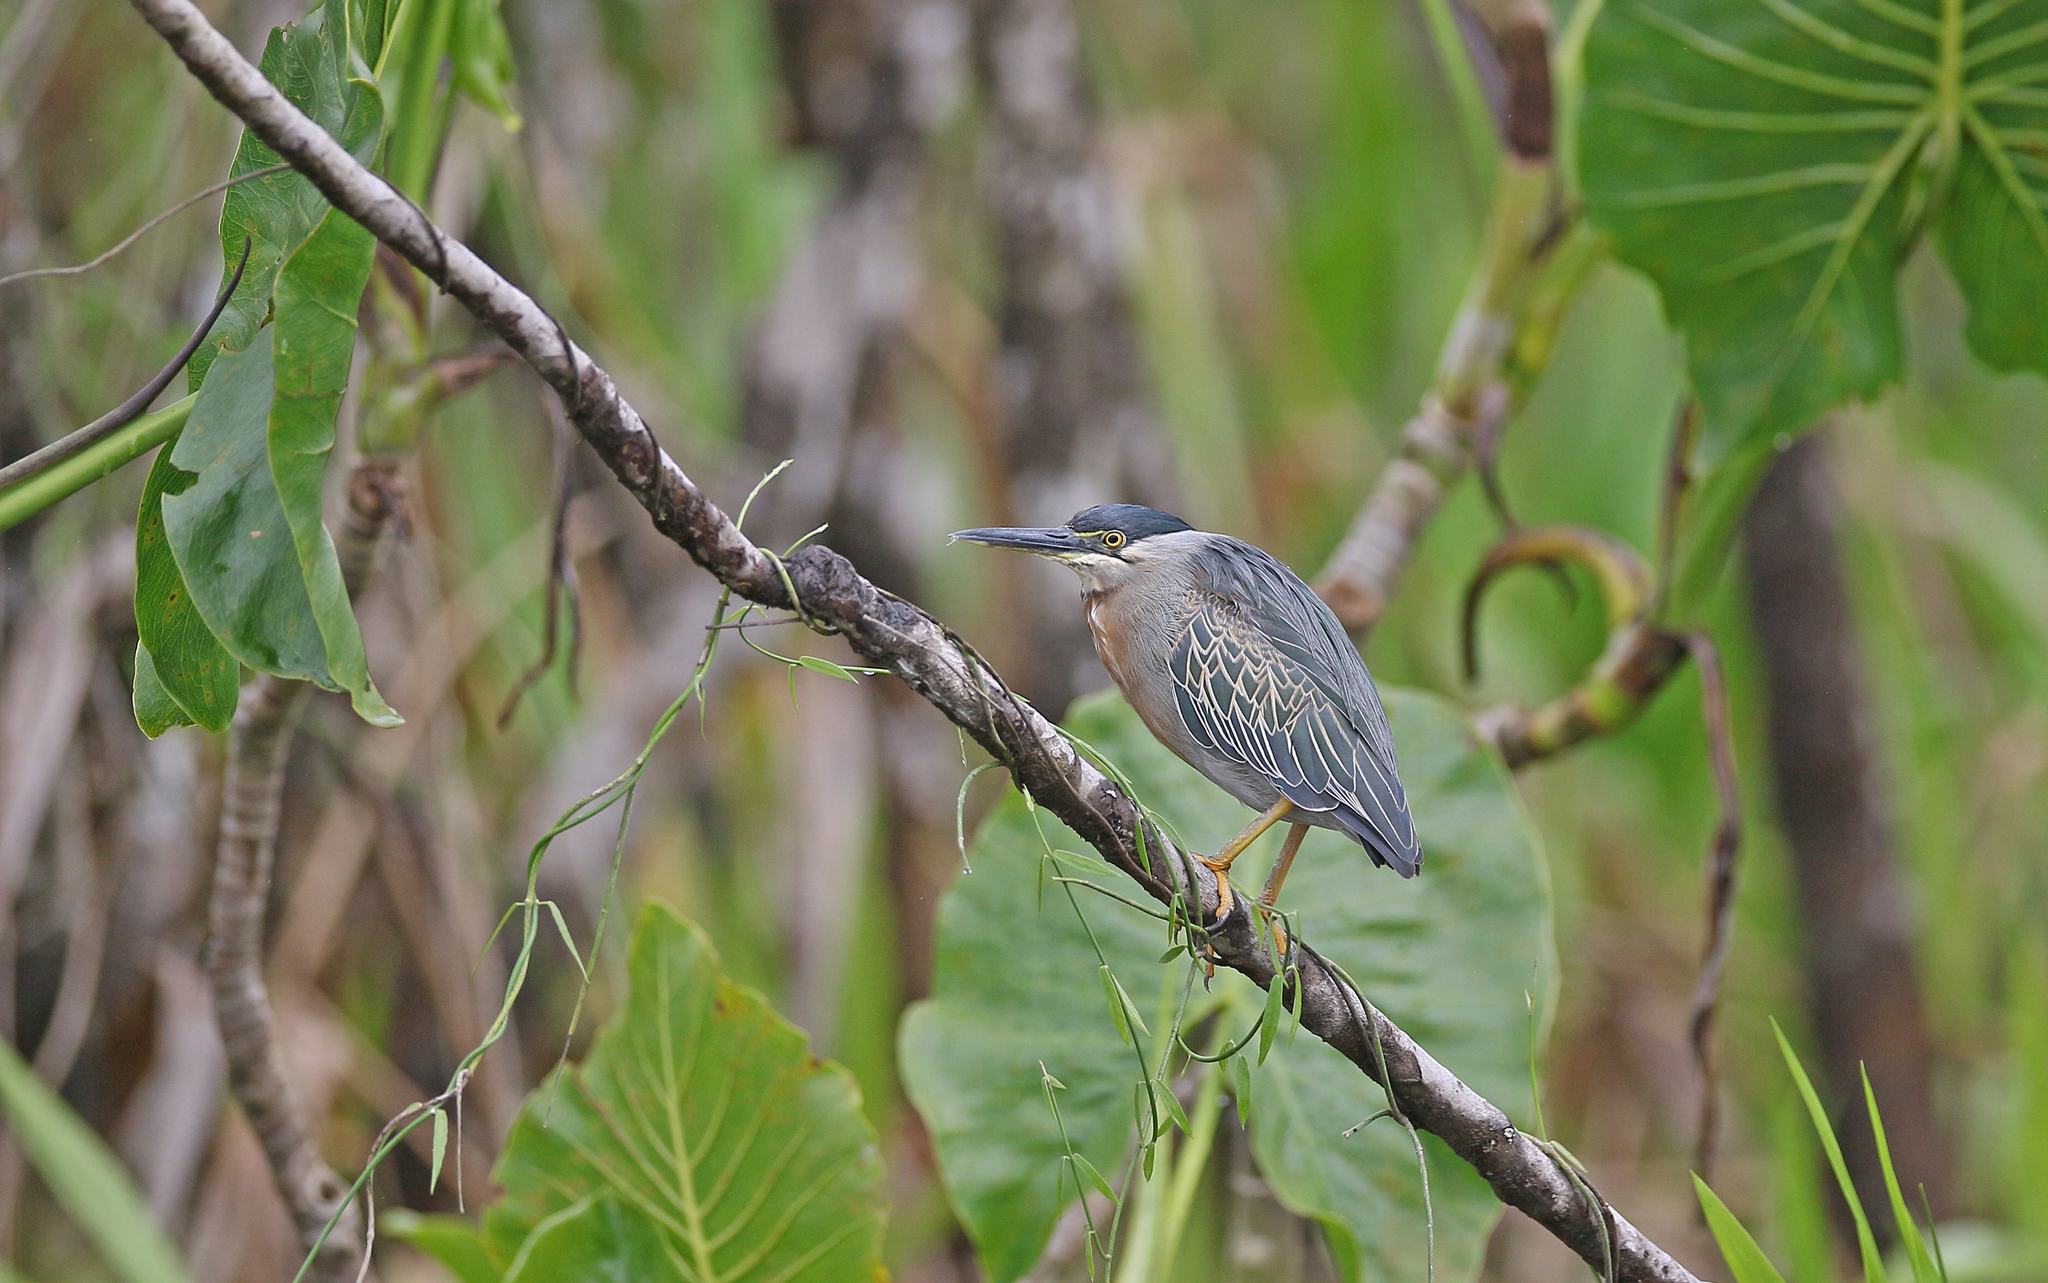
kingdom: Animalia
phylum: Chordata
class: Aves
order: Pelecaniformes
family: Ardeidae
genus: Butorides
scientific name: Butorides striata
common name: Striated heron
